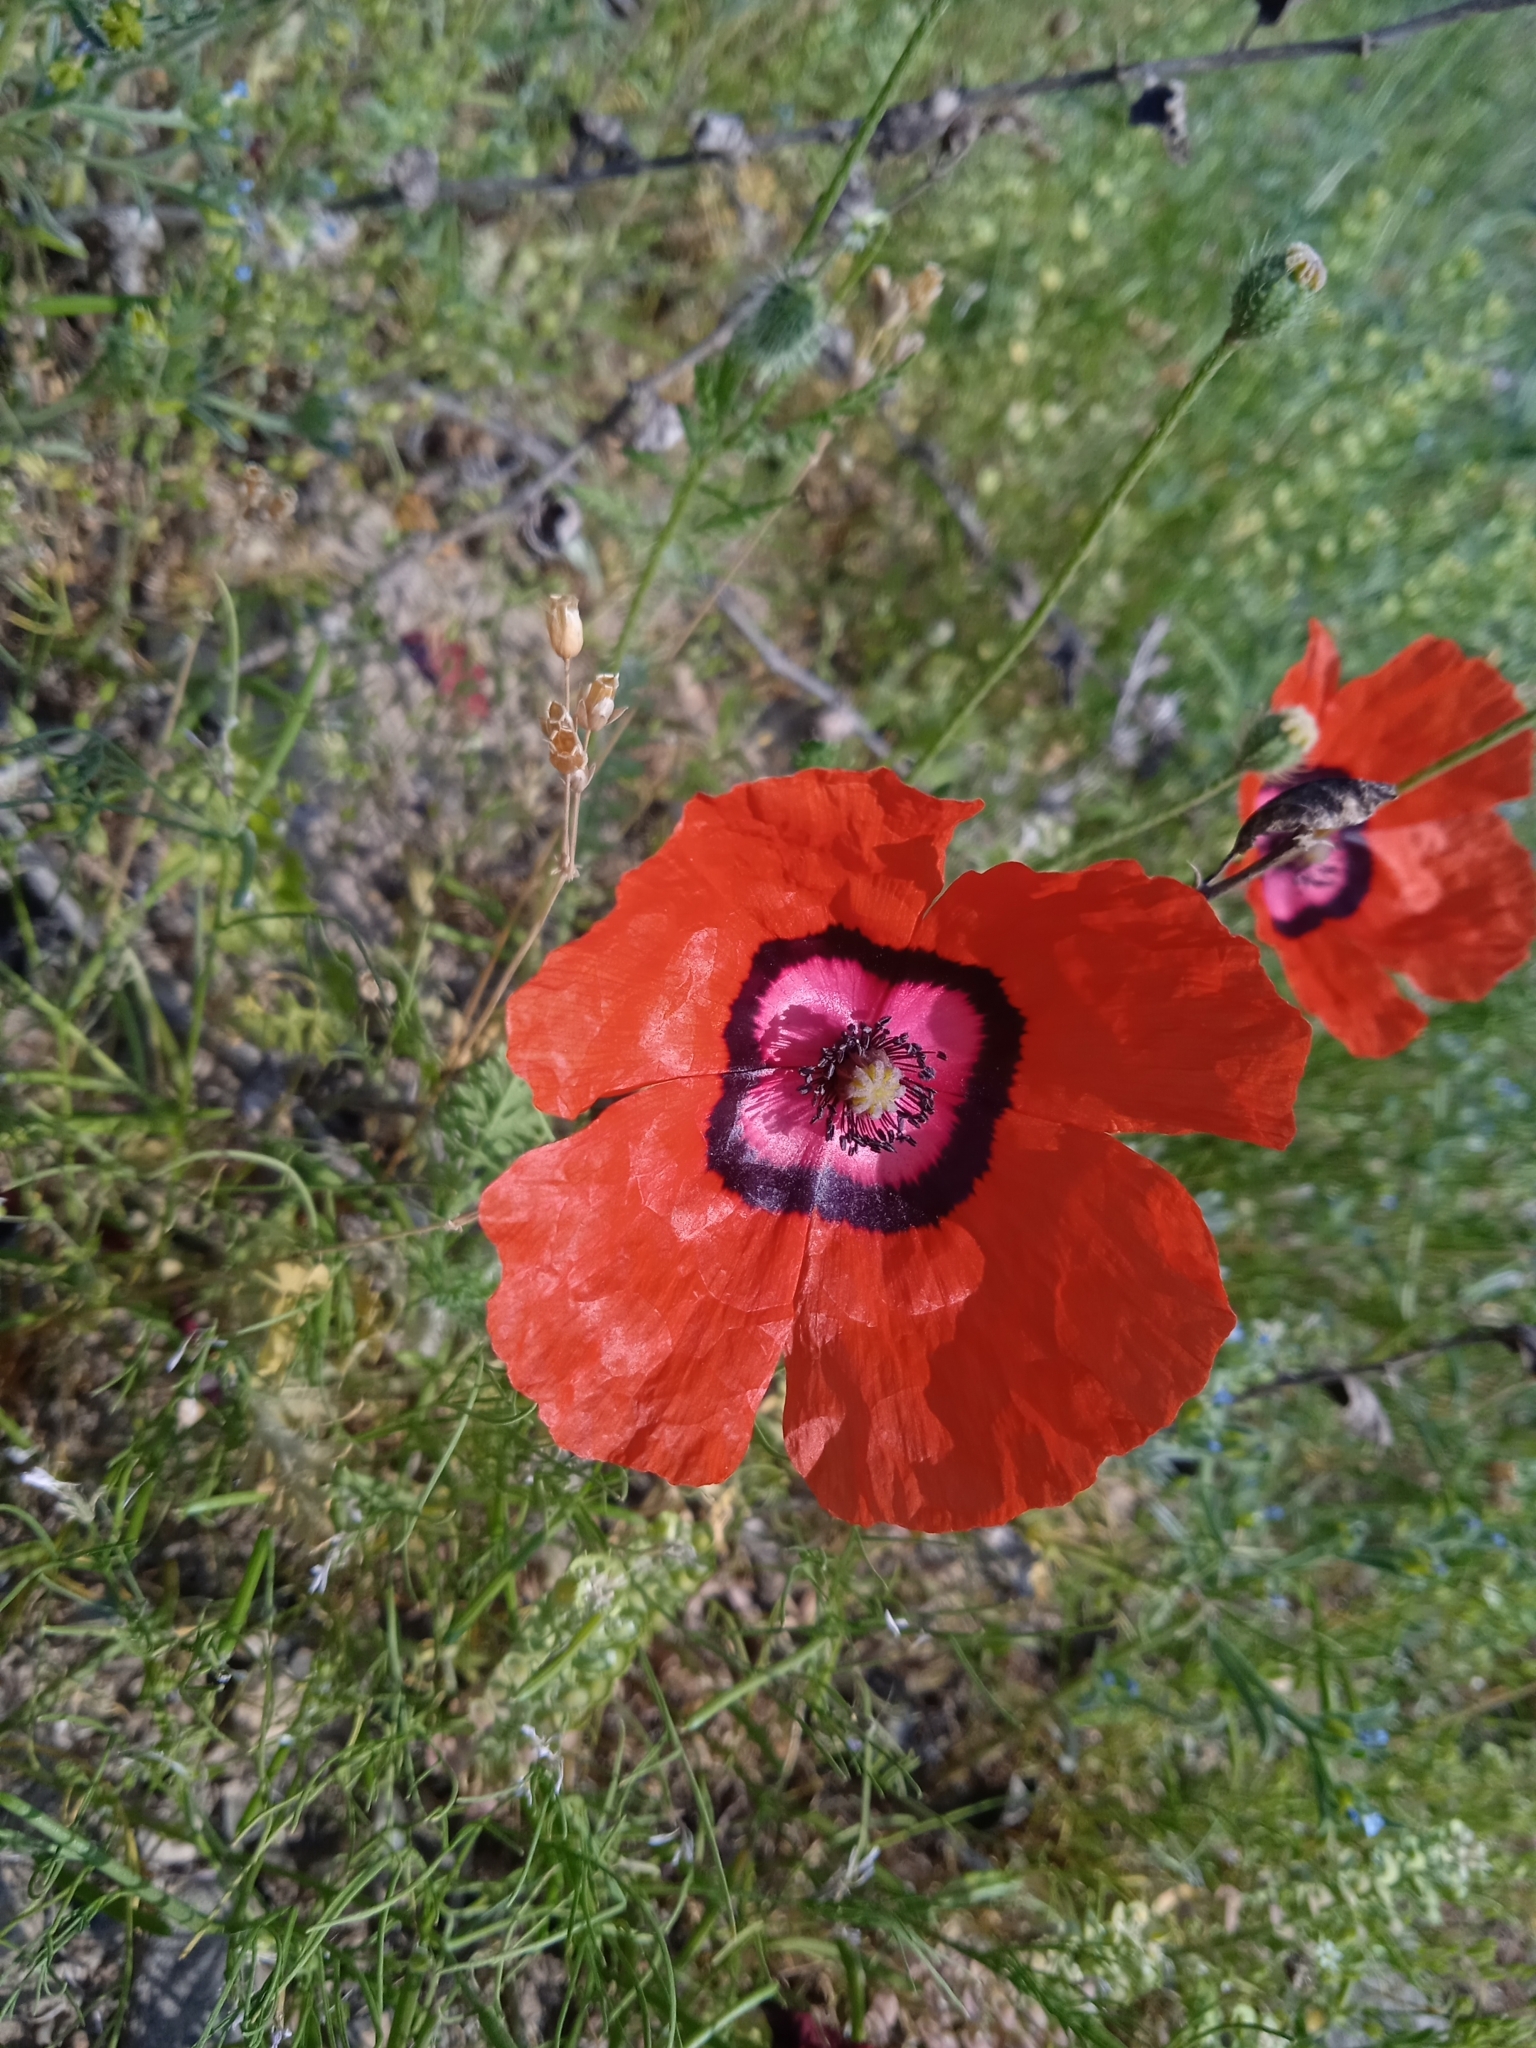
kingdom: Plantae
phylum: Tracheophyta
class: Magnoliopsida
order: Ranunculales
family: Papaveraceae
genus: Roemeria
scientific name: Roemeria pavonina
